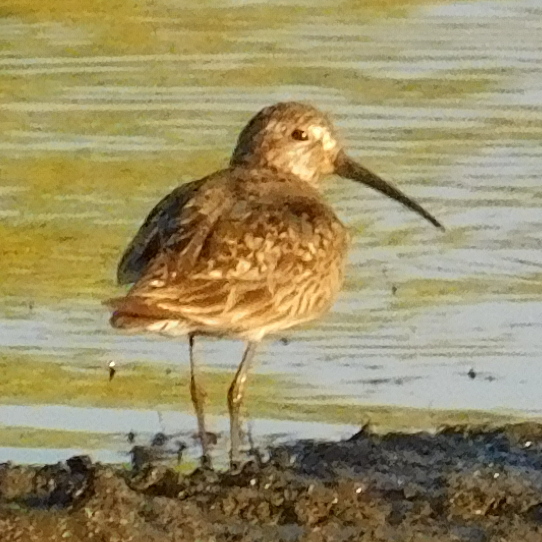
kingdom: Animalia
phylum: Chordata
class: Aves
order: Charadriiformes
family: Scolopacidae
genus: Calidris
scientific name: Calidris ferruginea
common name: Curlew sandpiper
